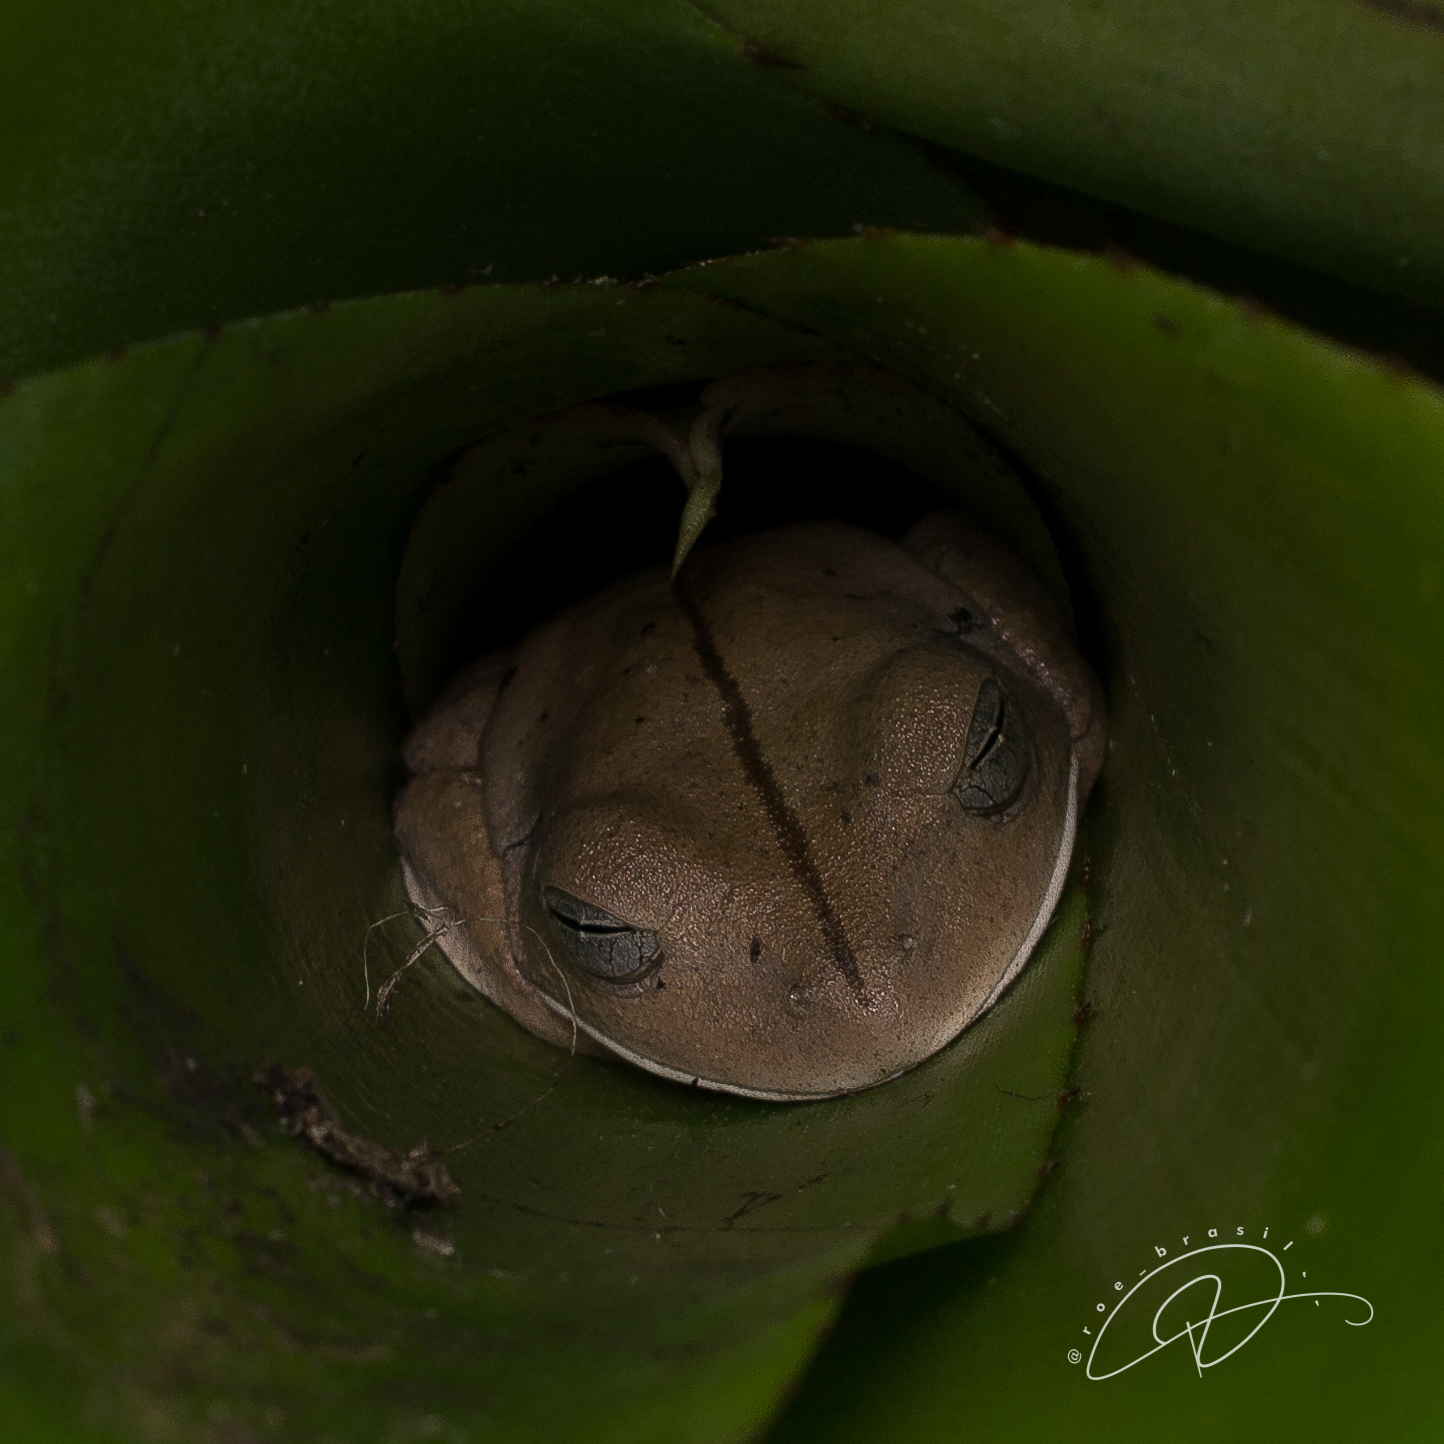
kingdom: Animalia
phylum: Chordata
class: Amphibia
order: Anura
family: Hylidae
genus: Boana
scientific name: Boana faber
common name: Blacksmith tree frog
